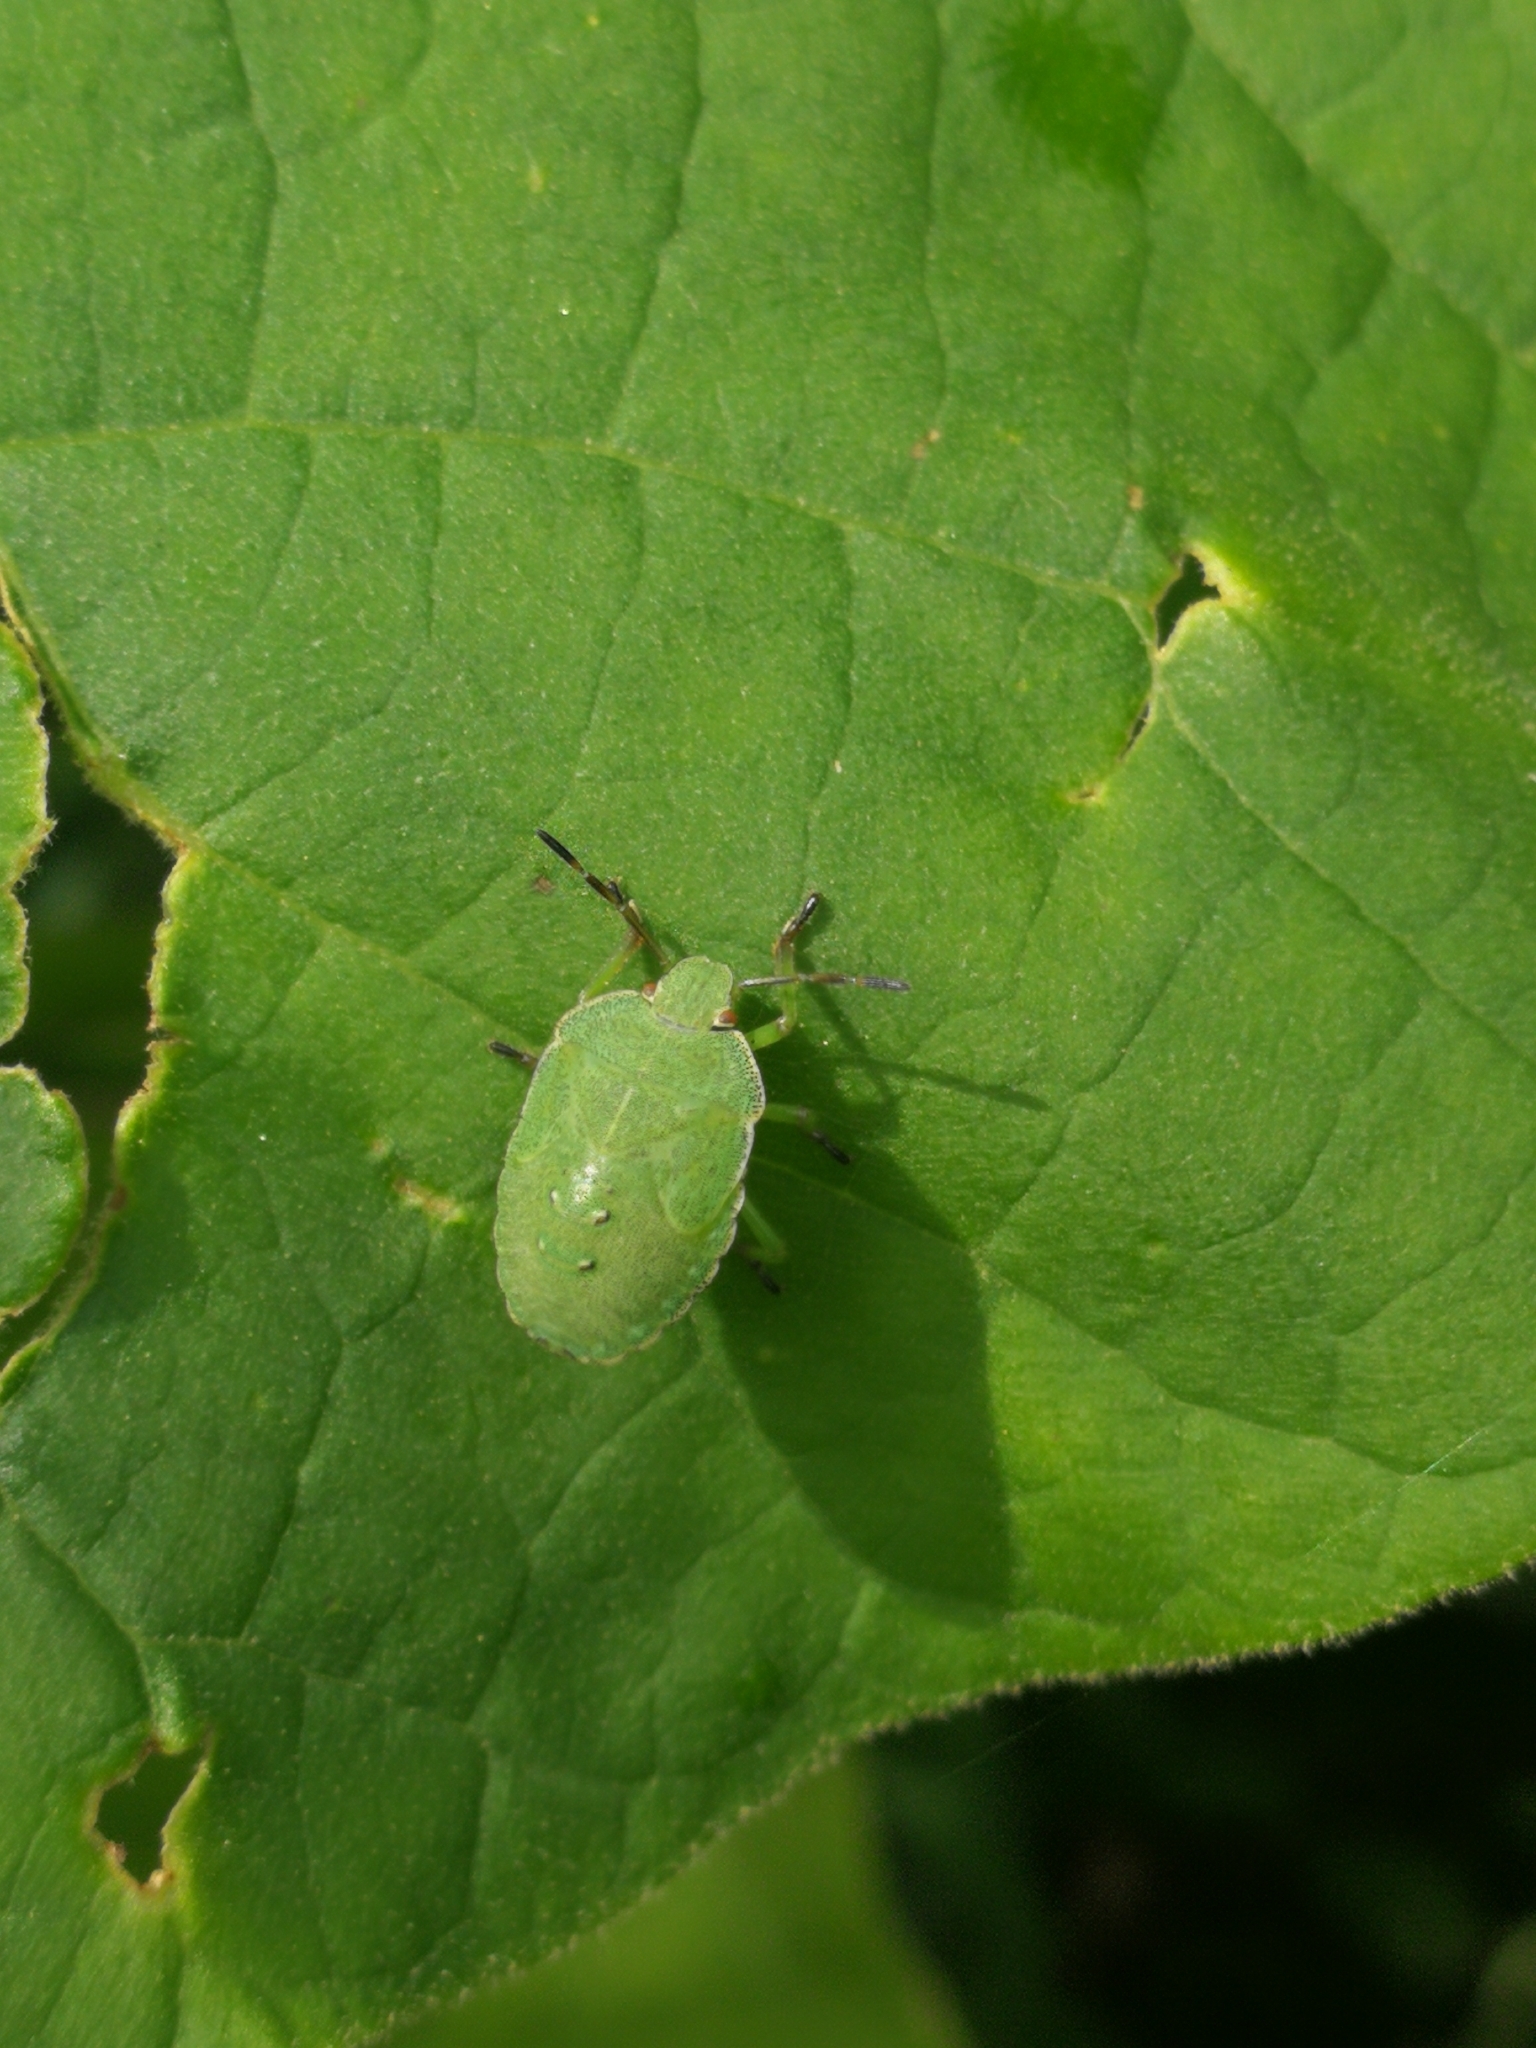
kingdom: Animalia
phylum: Arthropoda
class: Insecta
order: Hemiptera
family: Pentatomidae
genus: Palomena
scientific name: Palomena prasina
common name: Green shieldbug
